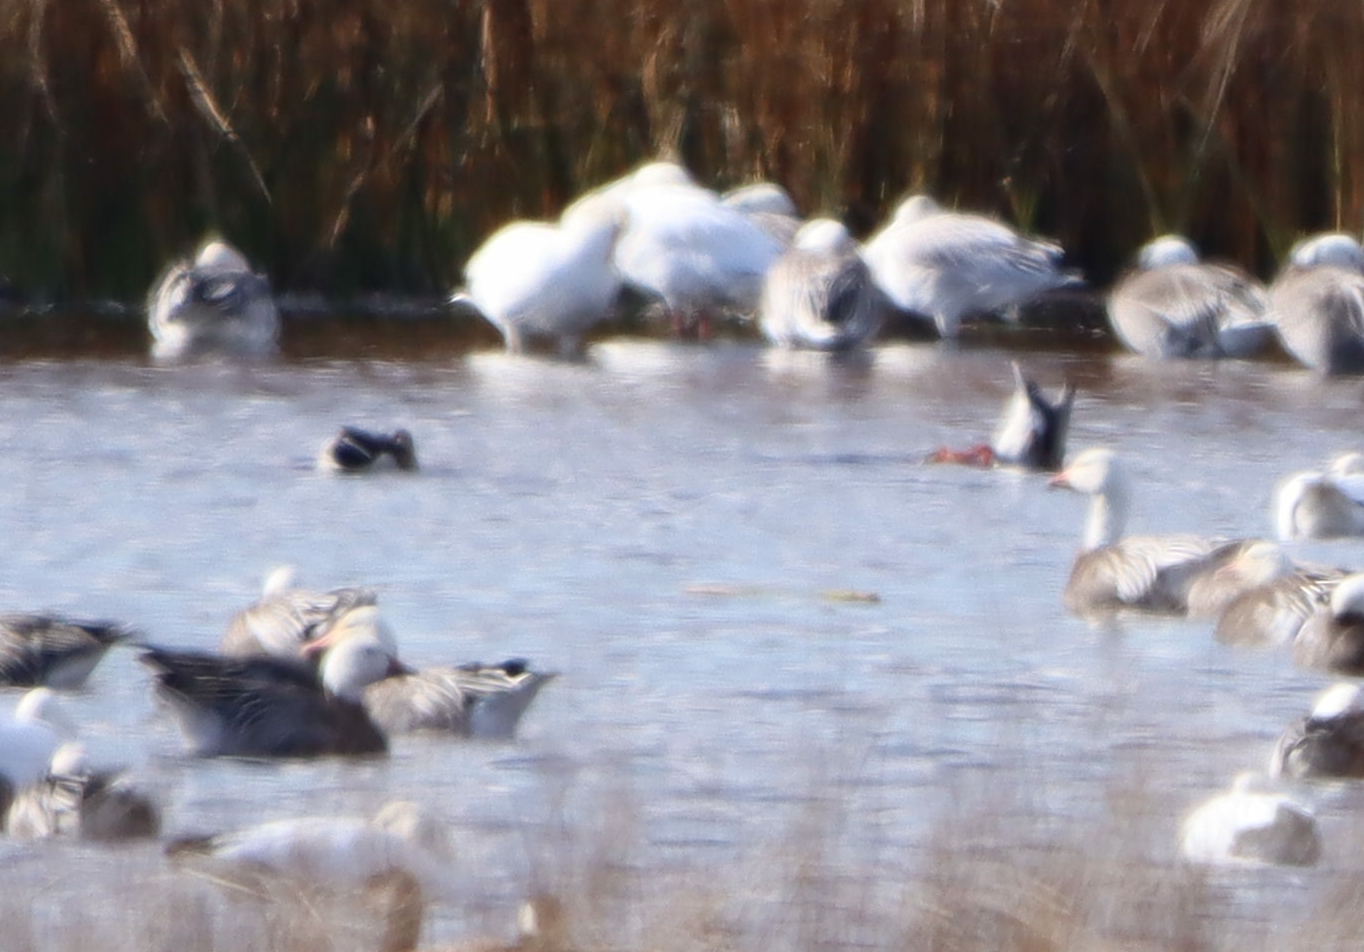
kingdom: Animalia
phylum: Chordata
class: Aves
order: Anseriformes
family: Anatidae
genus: Anser
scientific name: Anser caerulescens
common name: Snow goose
